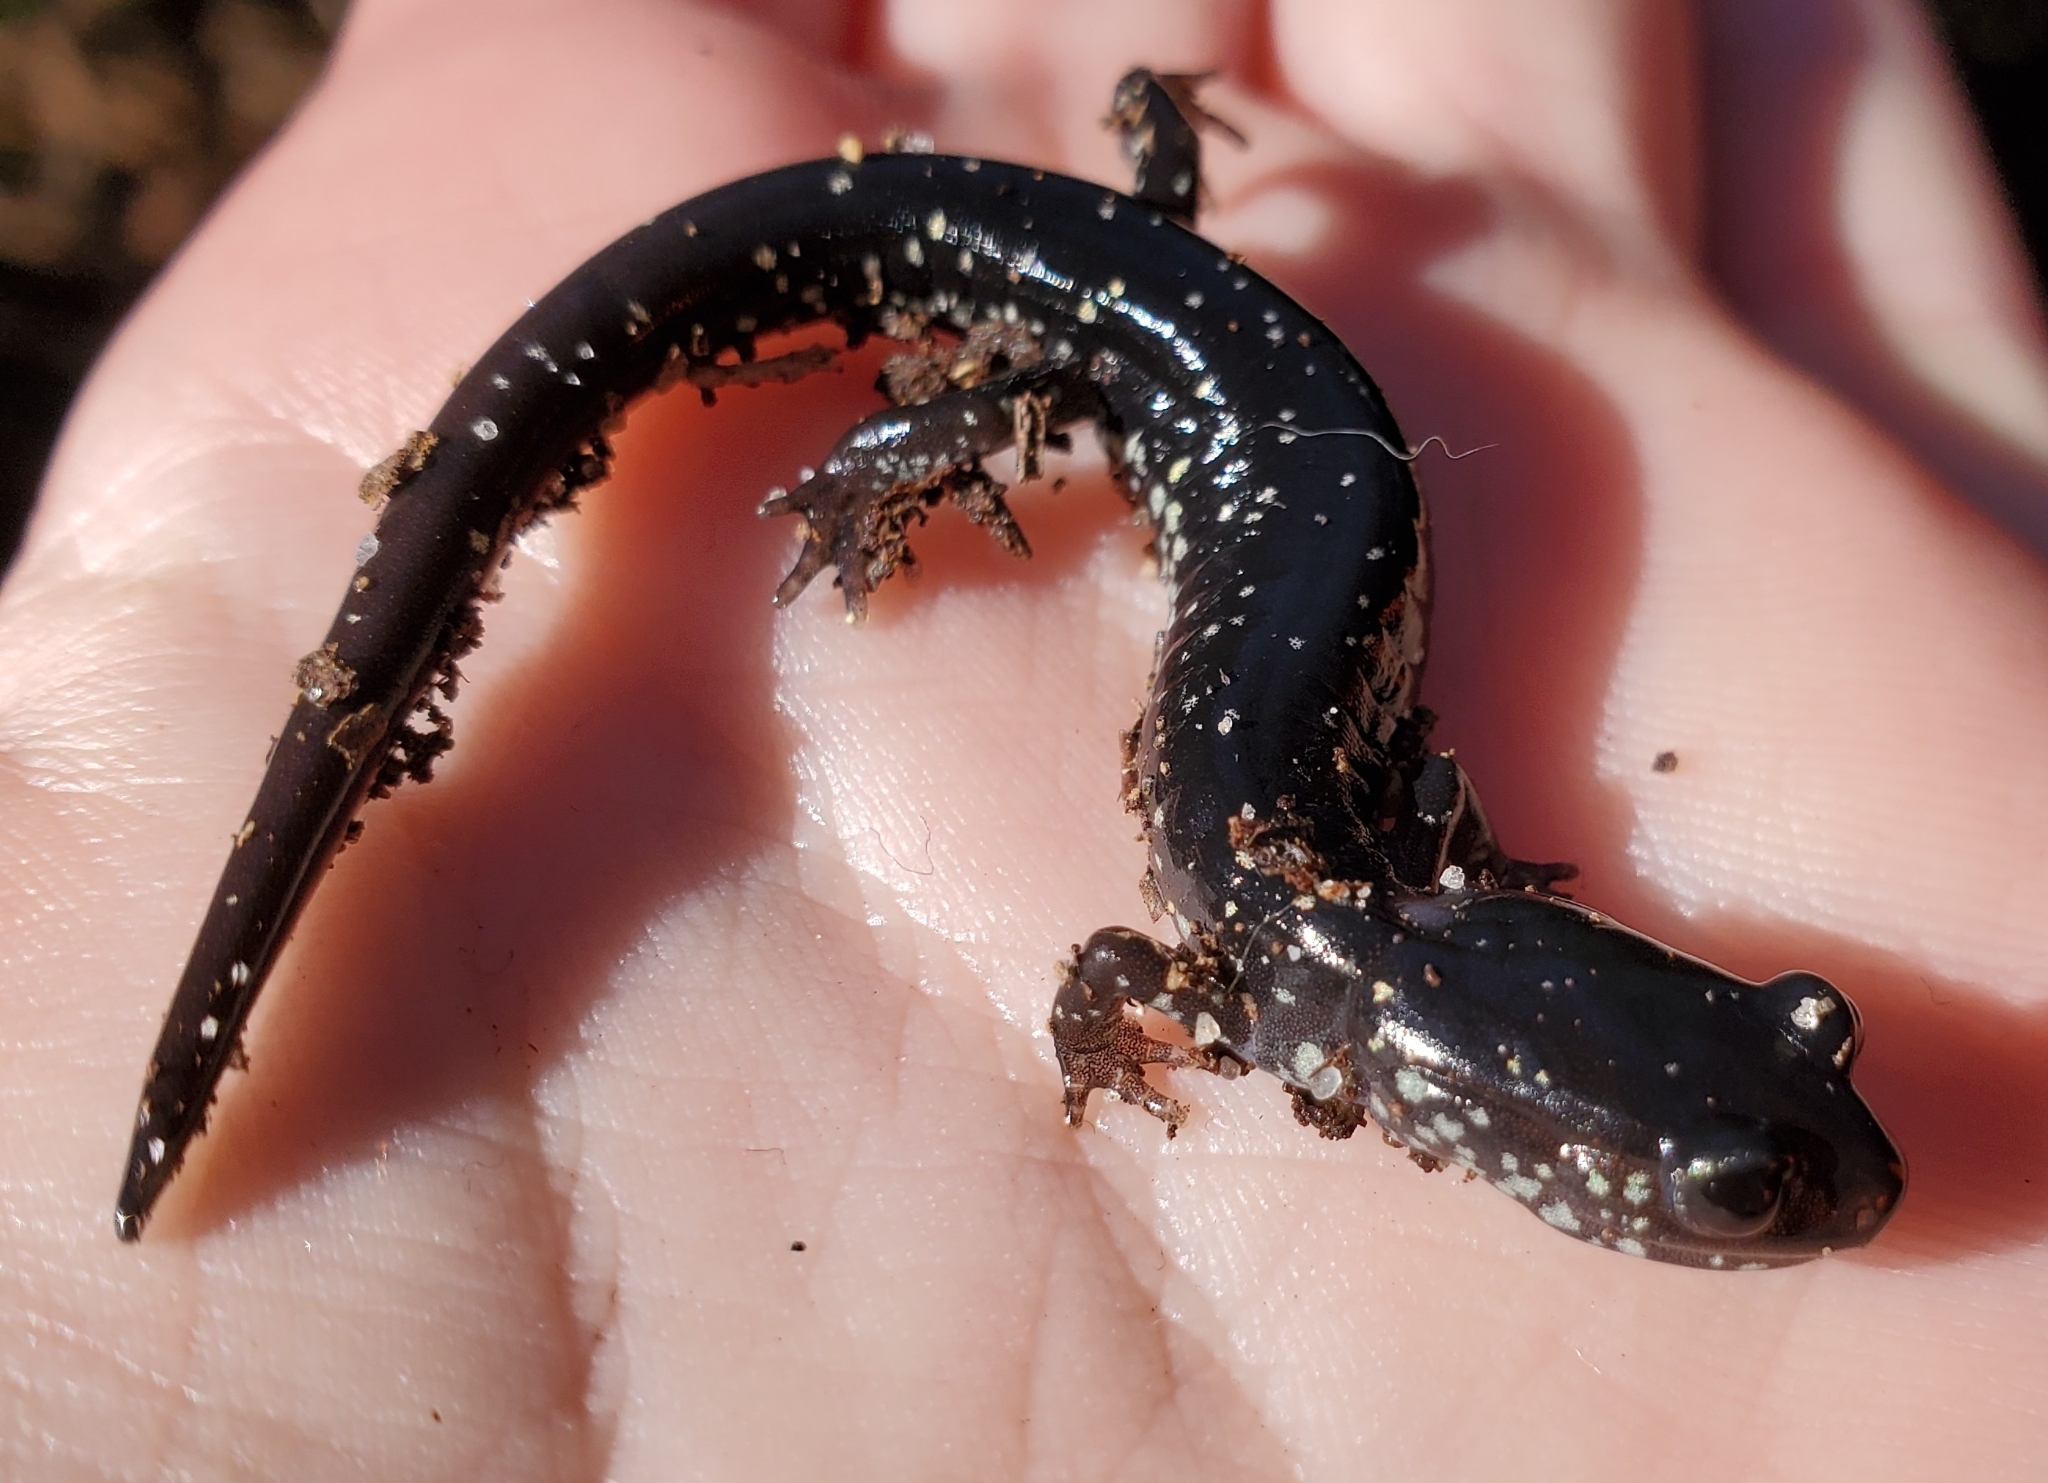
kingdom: Animalia
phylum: Chordata
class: Amphibia
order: Caudata
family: Plethodontidae
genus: Plethodon
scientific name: Plethodon grobmani
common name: Southeastern slimy salamander
